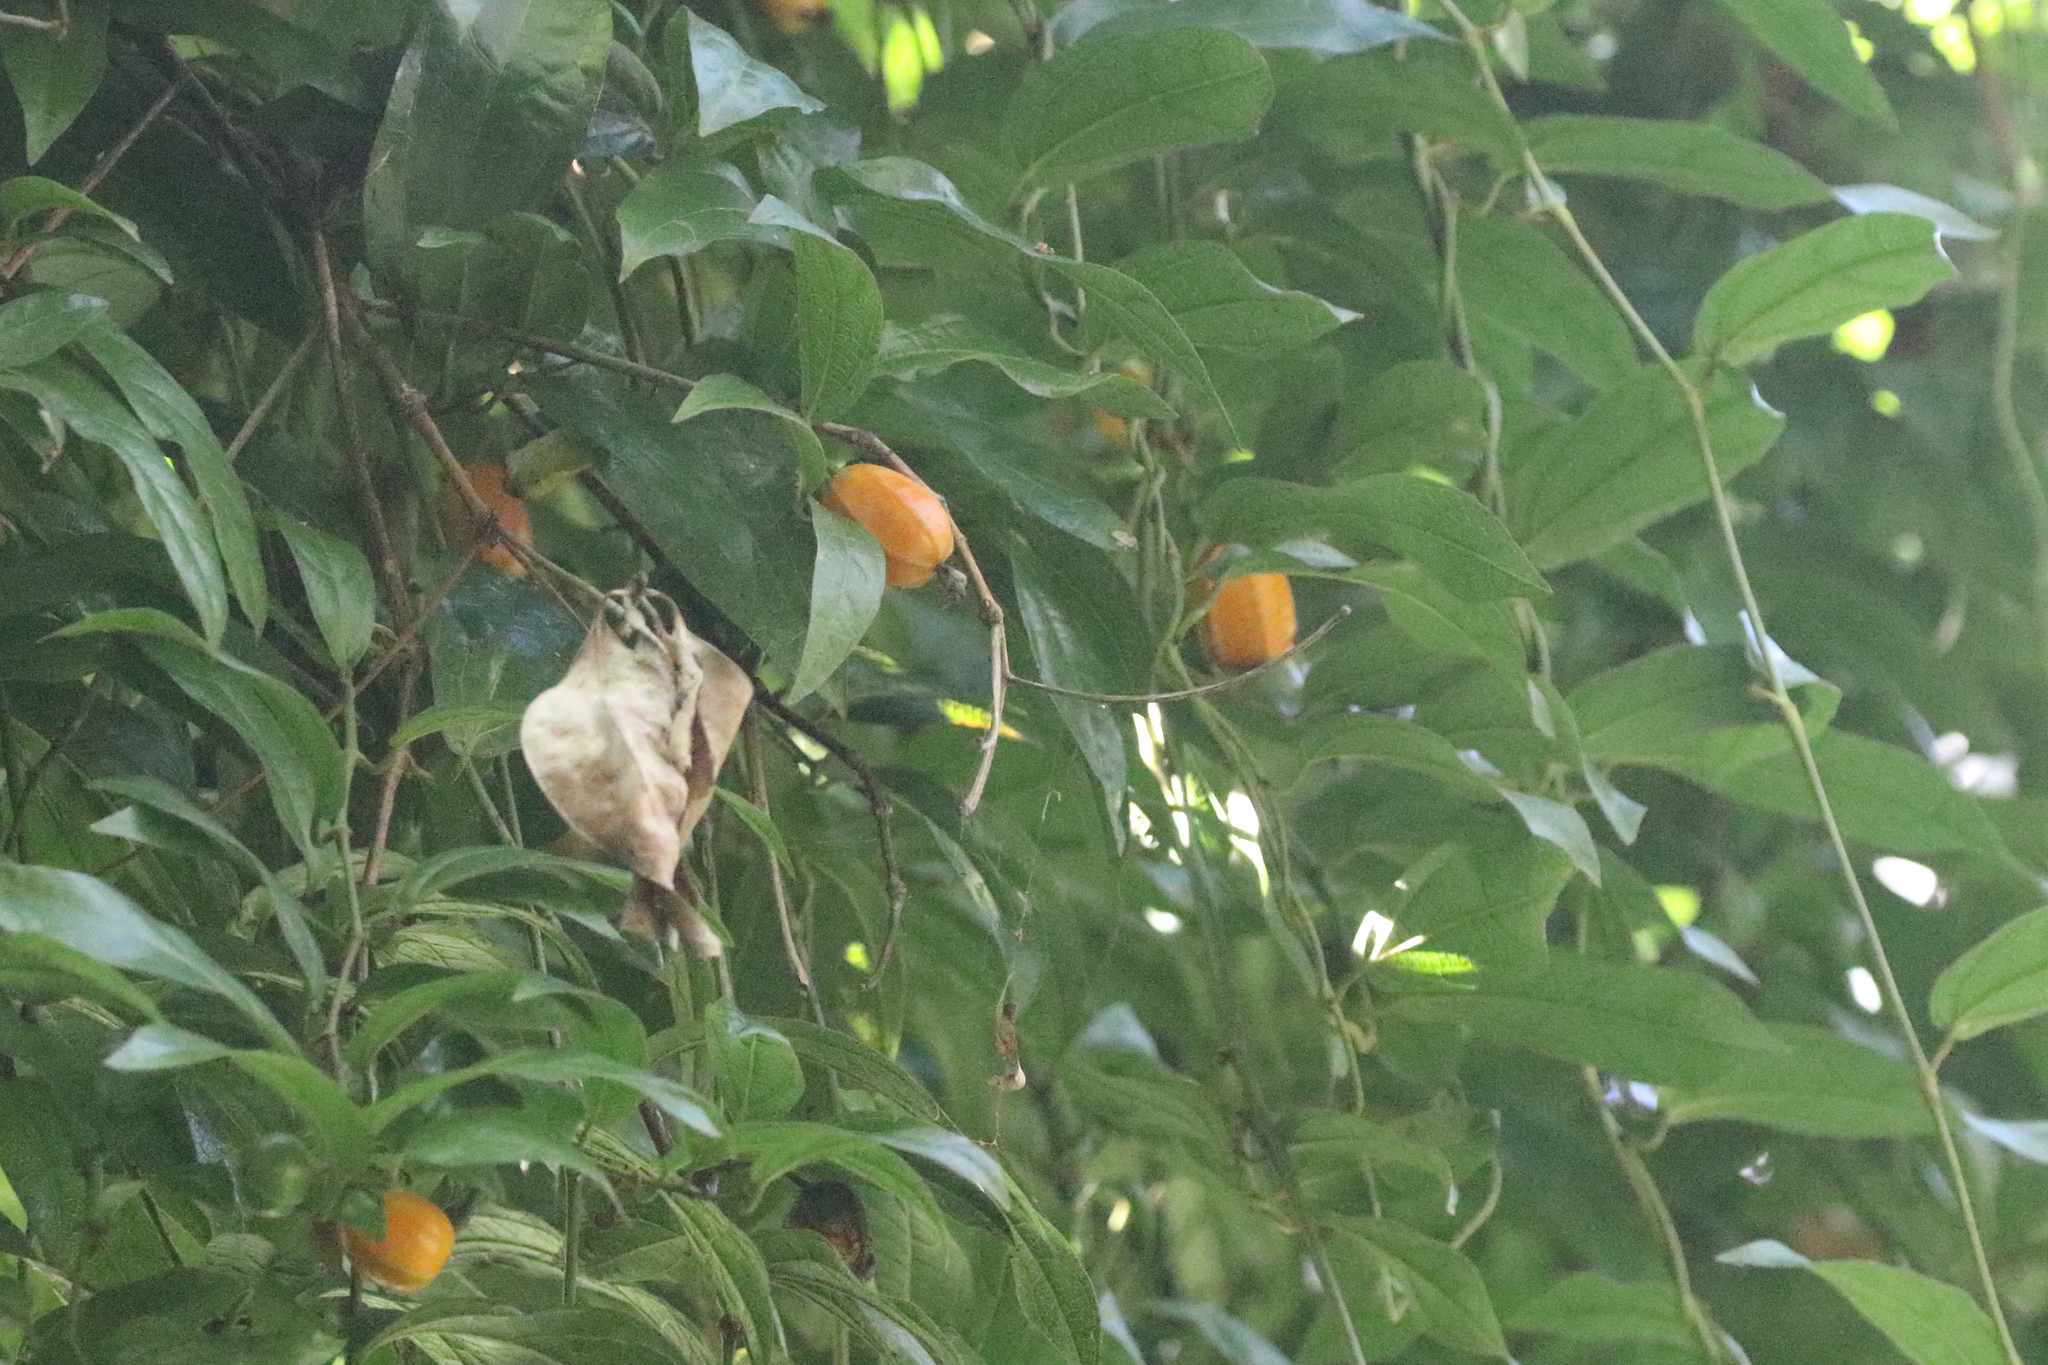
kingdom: Plantae
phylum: Tracheophyta
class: Magnoliopsida
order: Piperales
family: Aristolochiaceae
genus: Aristolochia
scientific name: Aristolochia praevenosa
